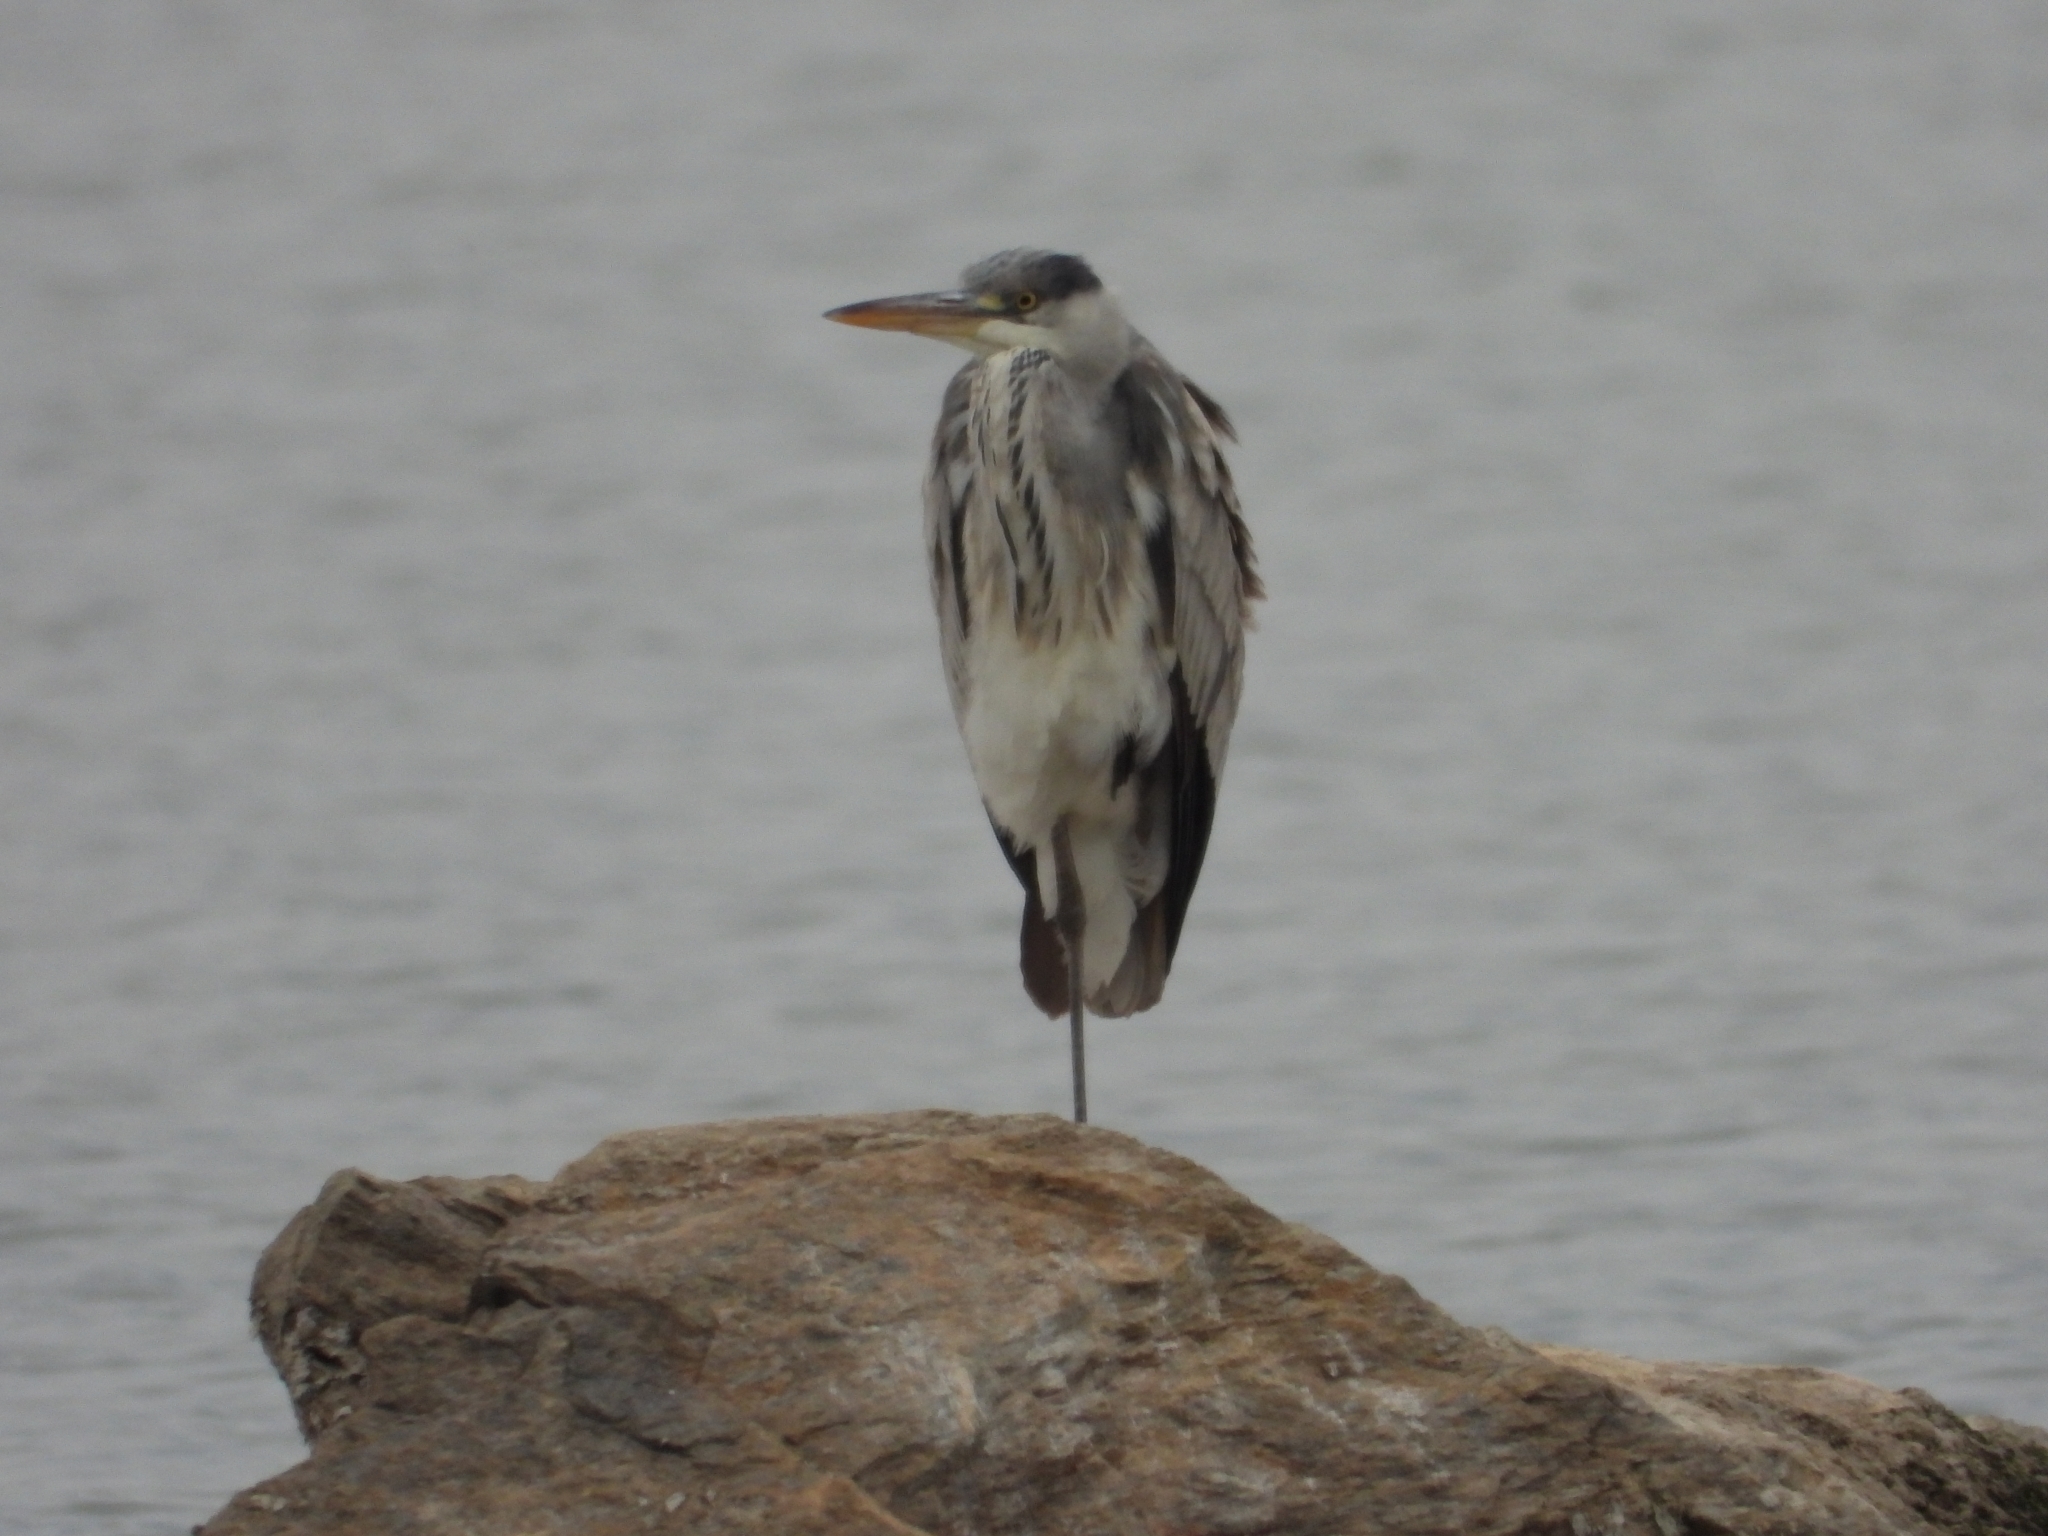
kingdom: Animalia
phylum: Chordata
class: Aves
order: Pelecaniformes
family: Ardeidae
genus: Ardea
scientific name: Ardea cinerea
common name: Grey heron
